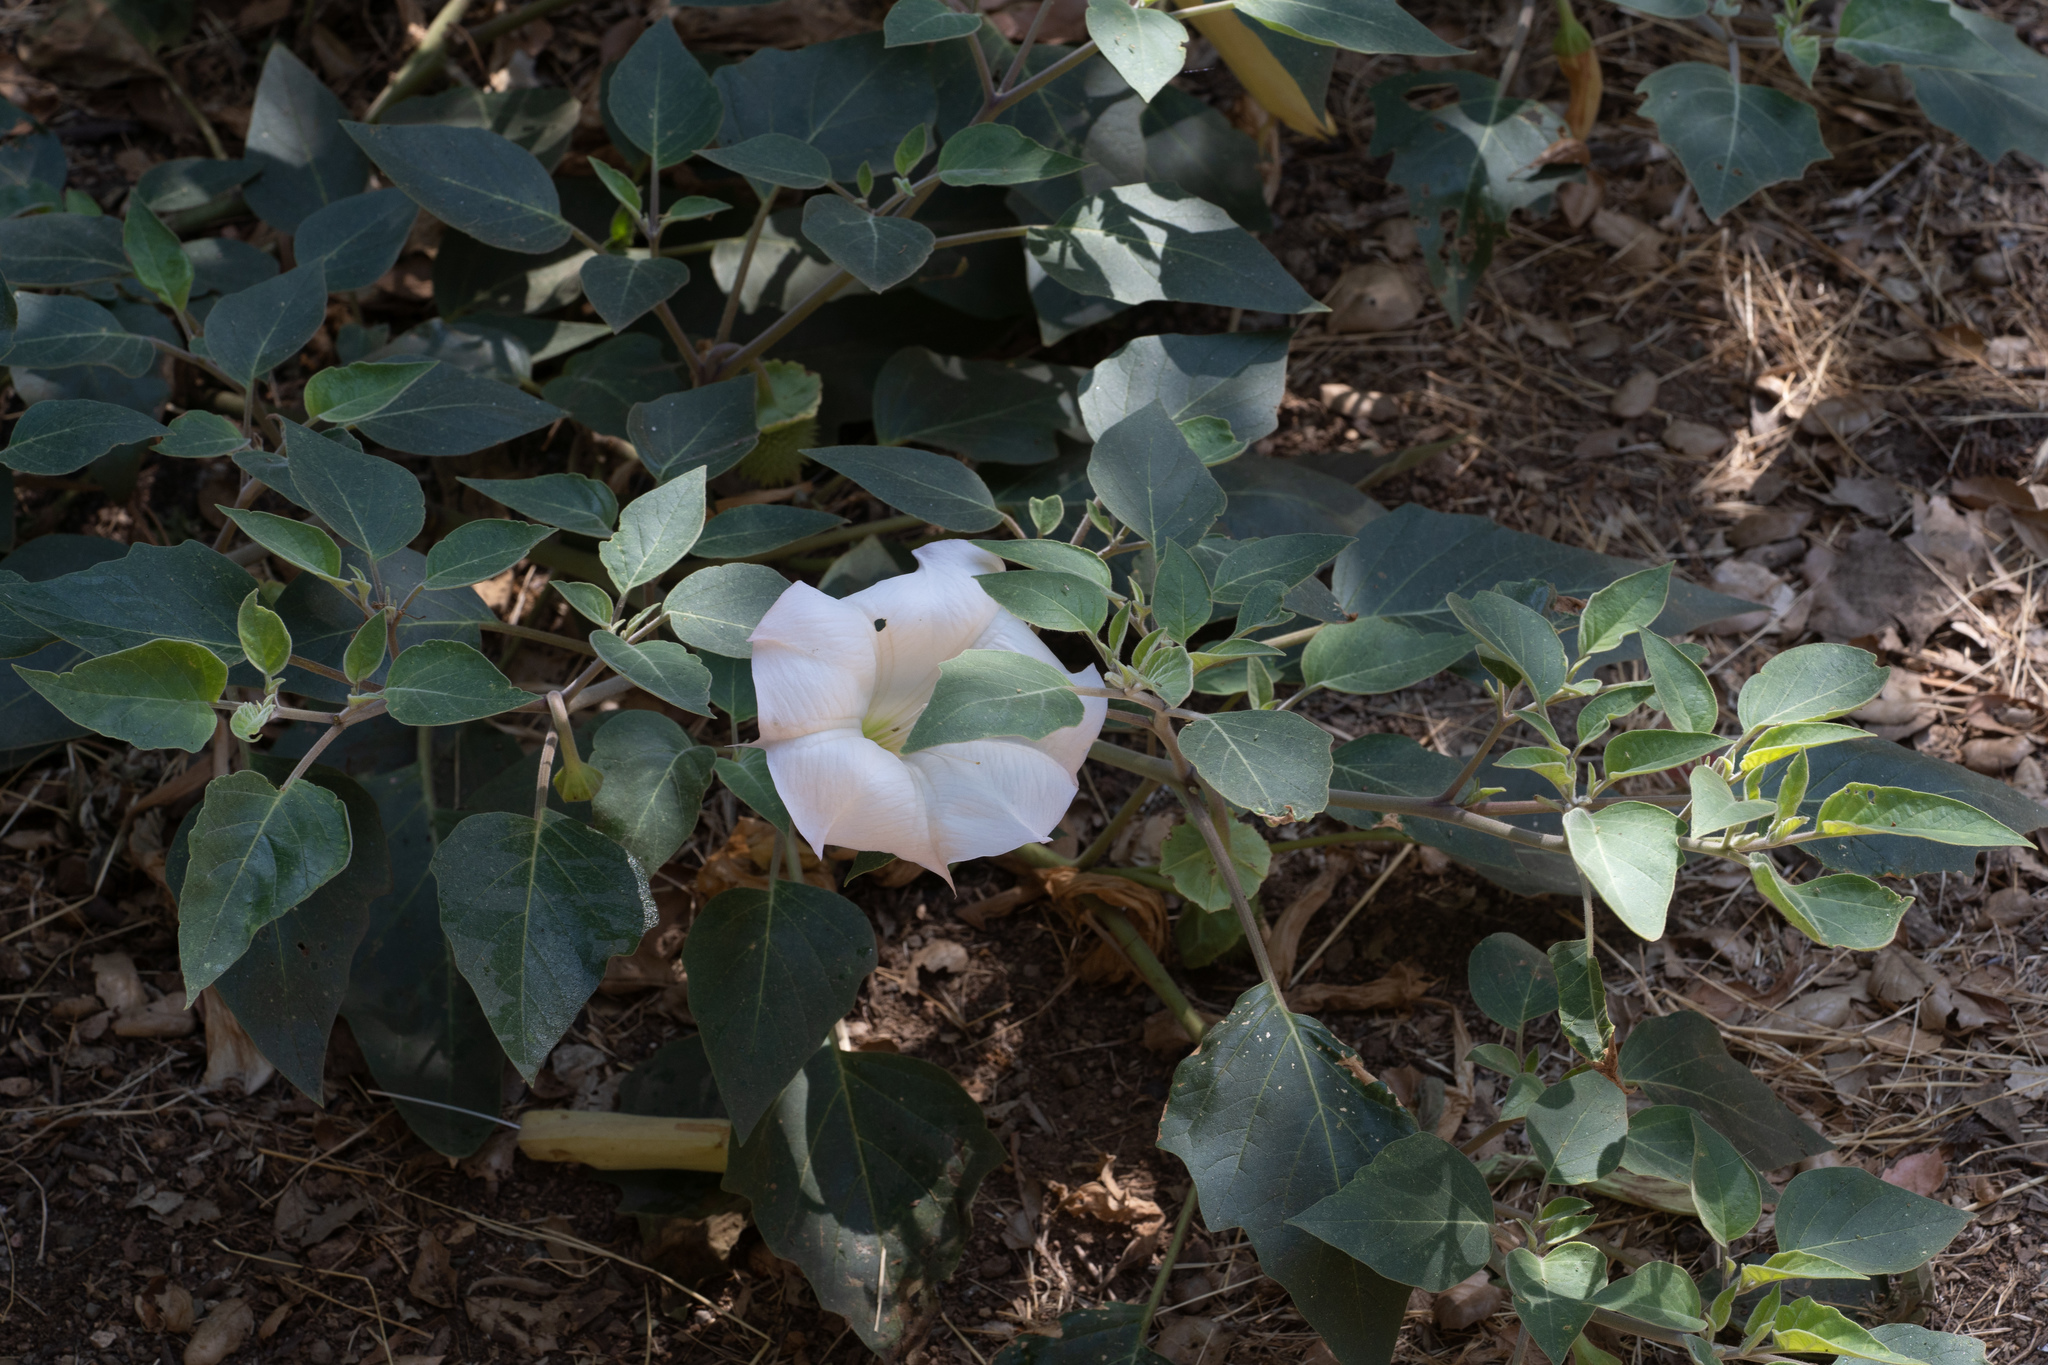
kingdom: Plantae
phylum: Tracheophyta
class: Magnoliopsida
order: Solanales
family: Solanaceae
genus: Datura
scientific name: Datura wrightii
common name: Sacred thorn-apple
